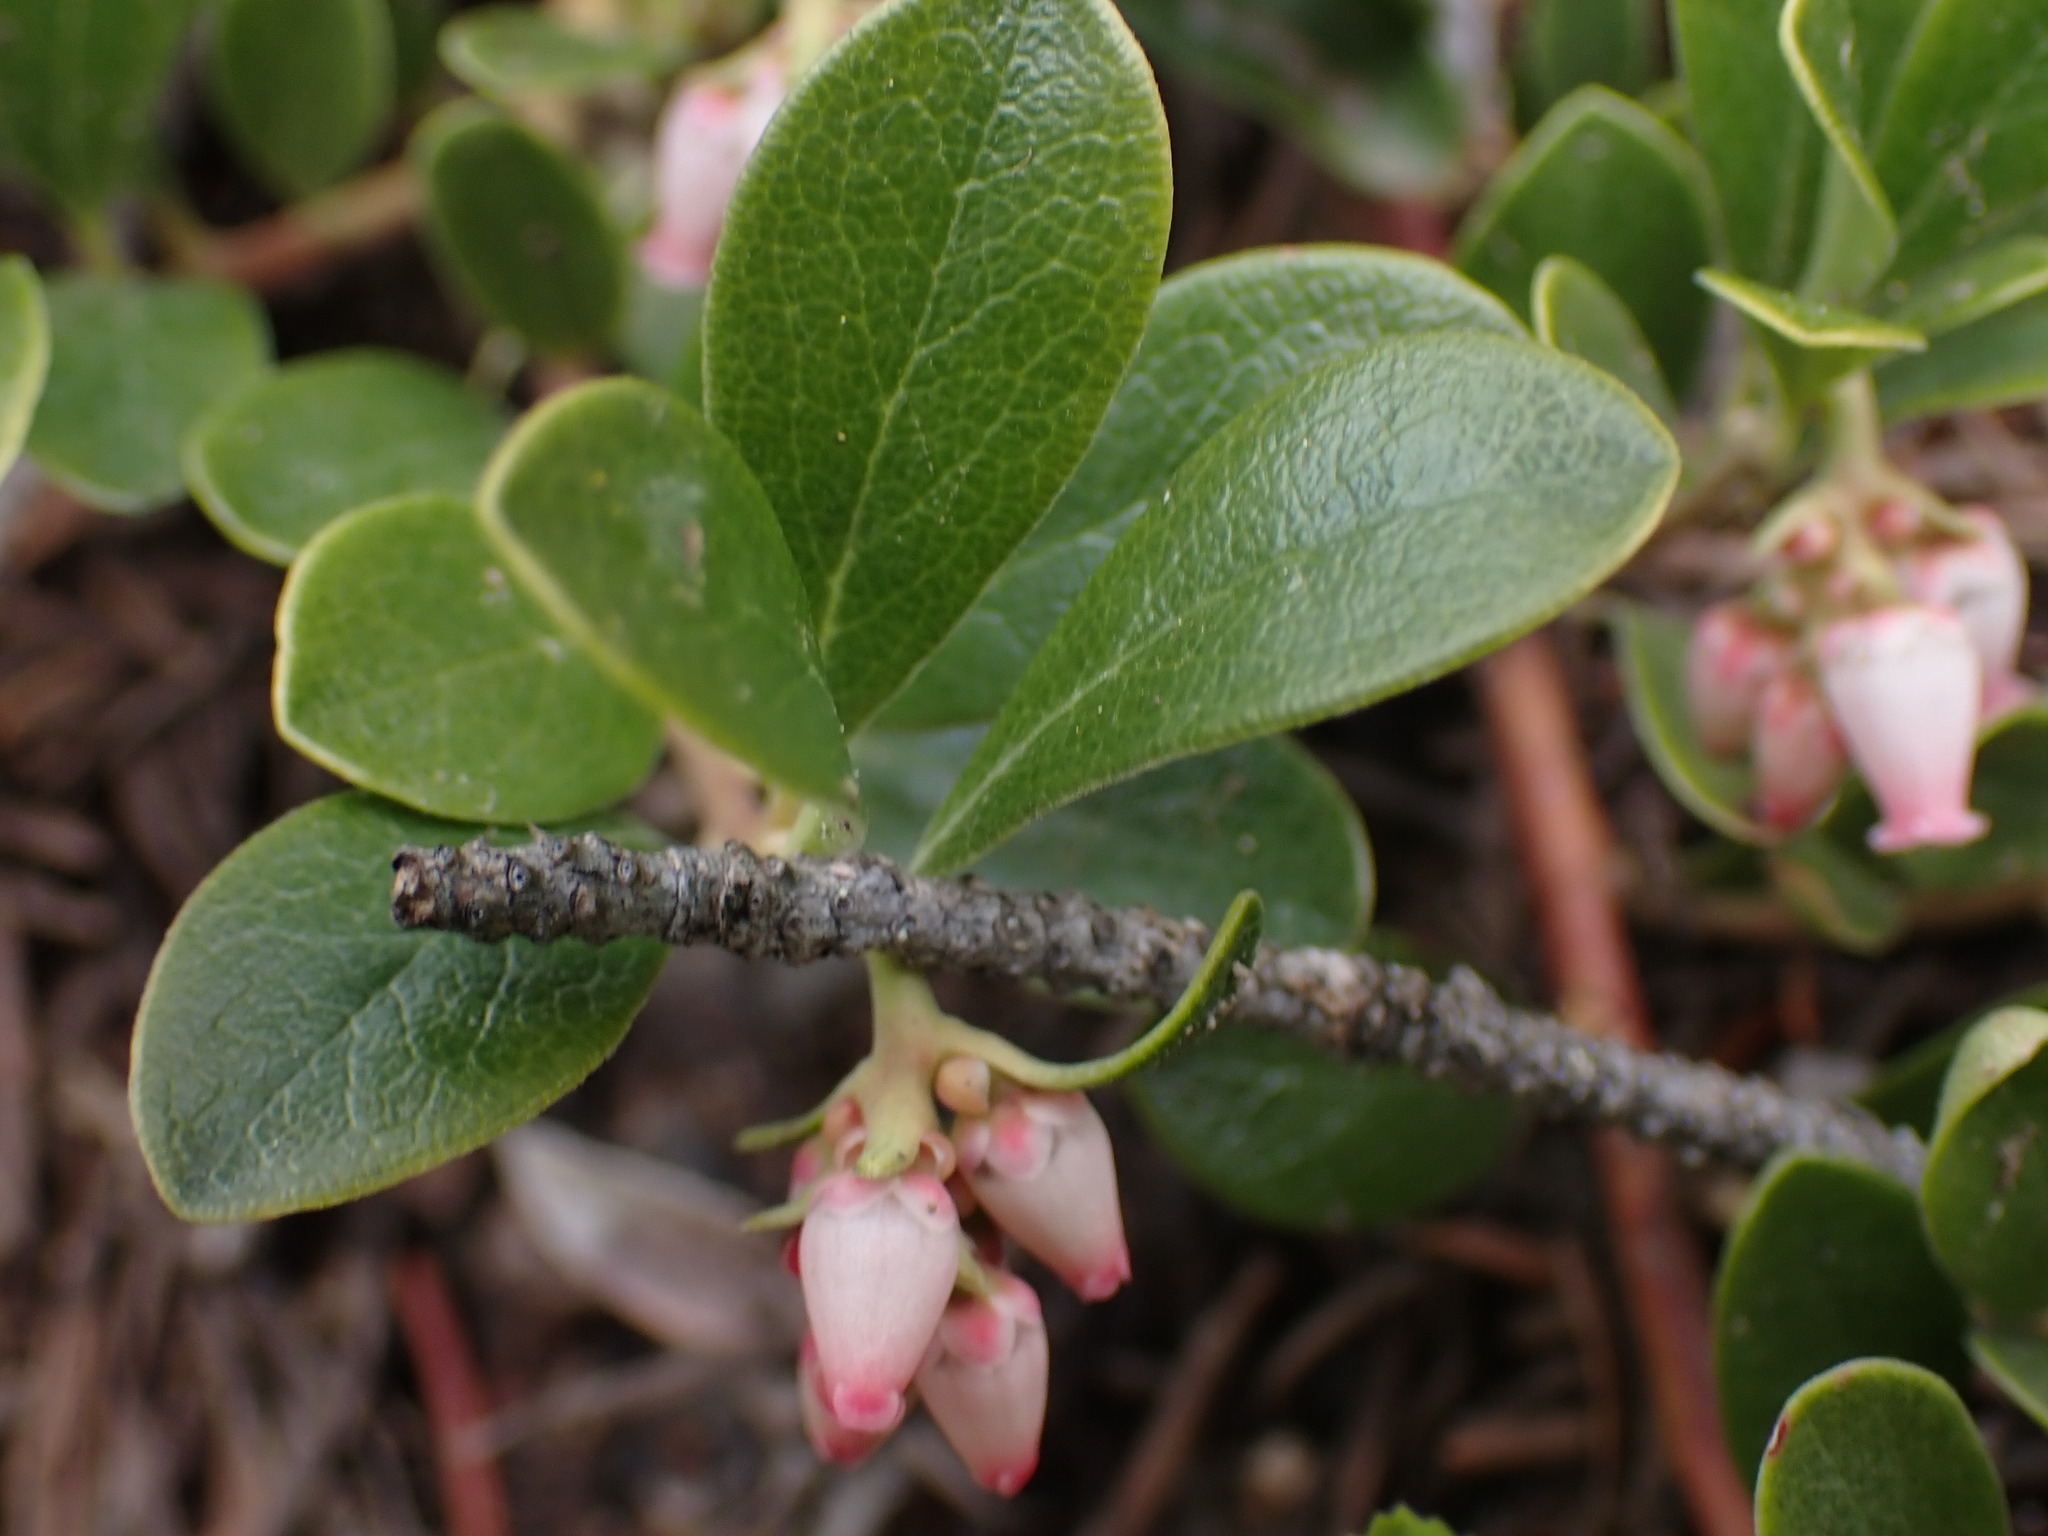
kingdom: Plantae
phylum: Tracheophyta
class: Magnoliopsida
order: Ericales
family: Ericaceae
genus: Arctostaphylos
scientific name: Arctostaphylos uva-ursi
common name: Bearberry
